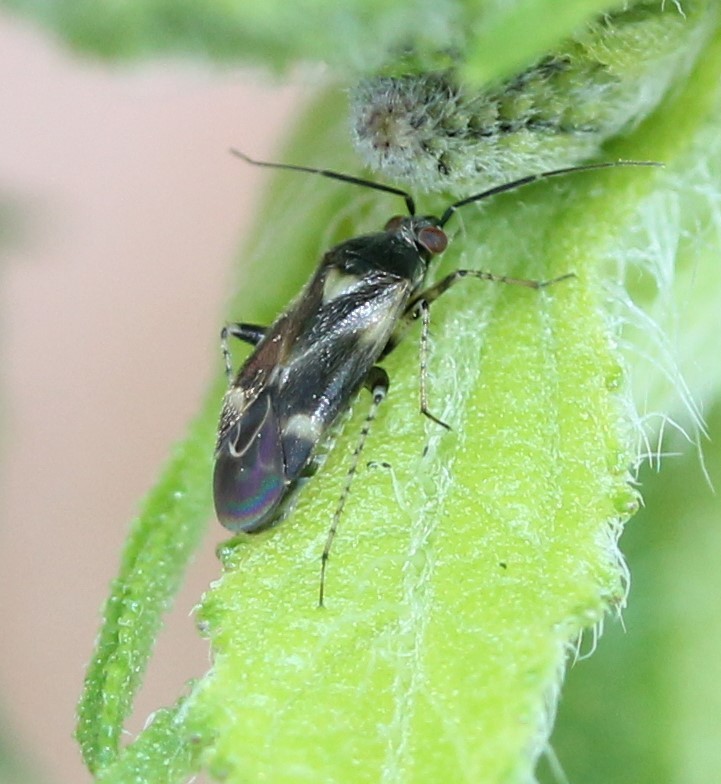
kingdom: Animalia
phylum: Arthropoda
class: Insecta
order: Hemiptera
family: Miridae
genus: Plagiognathus
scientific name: Plagiognathus obscurus
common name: Obscure plant bug
